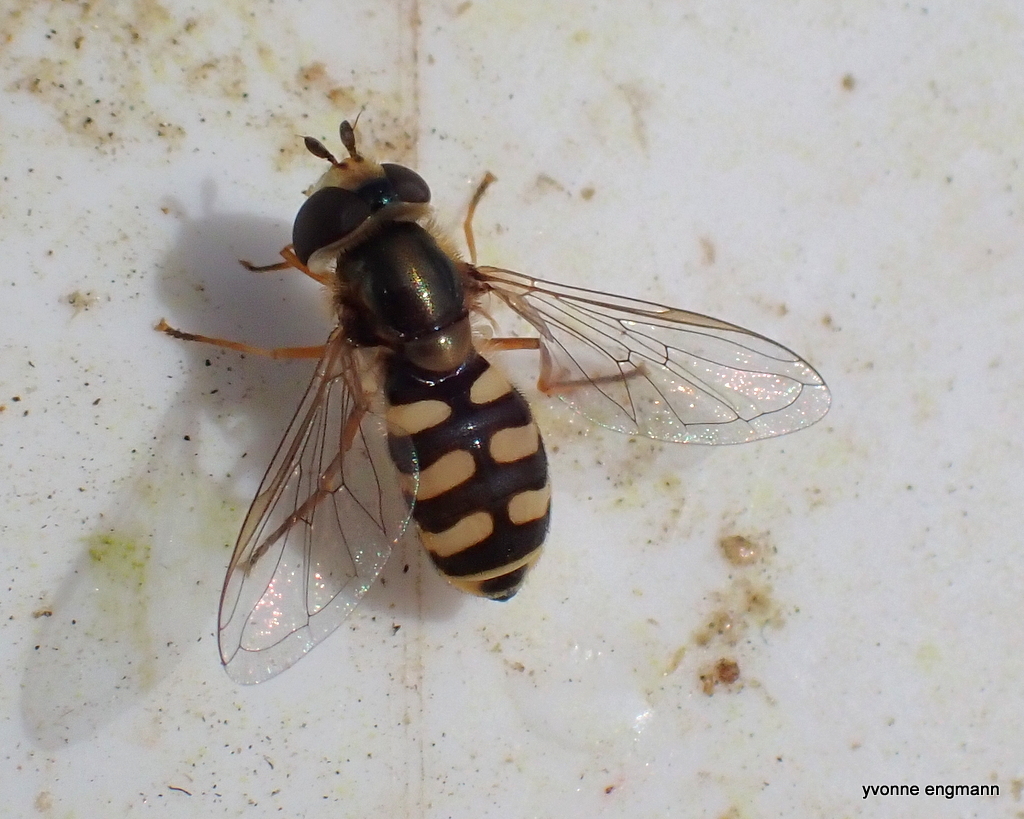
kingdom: Animalia
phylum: Arthropoda
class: Insecta
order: Diptera
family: Syrphidae
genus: Eupeodes
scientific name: Eupeodes corollae
